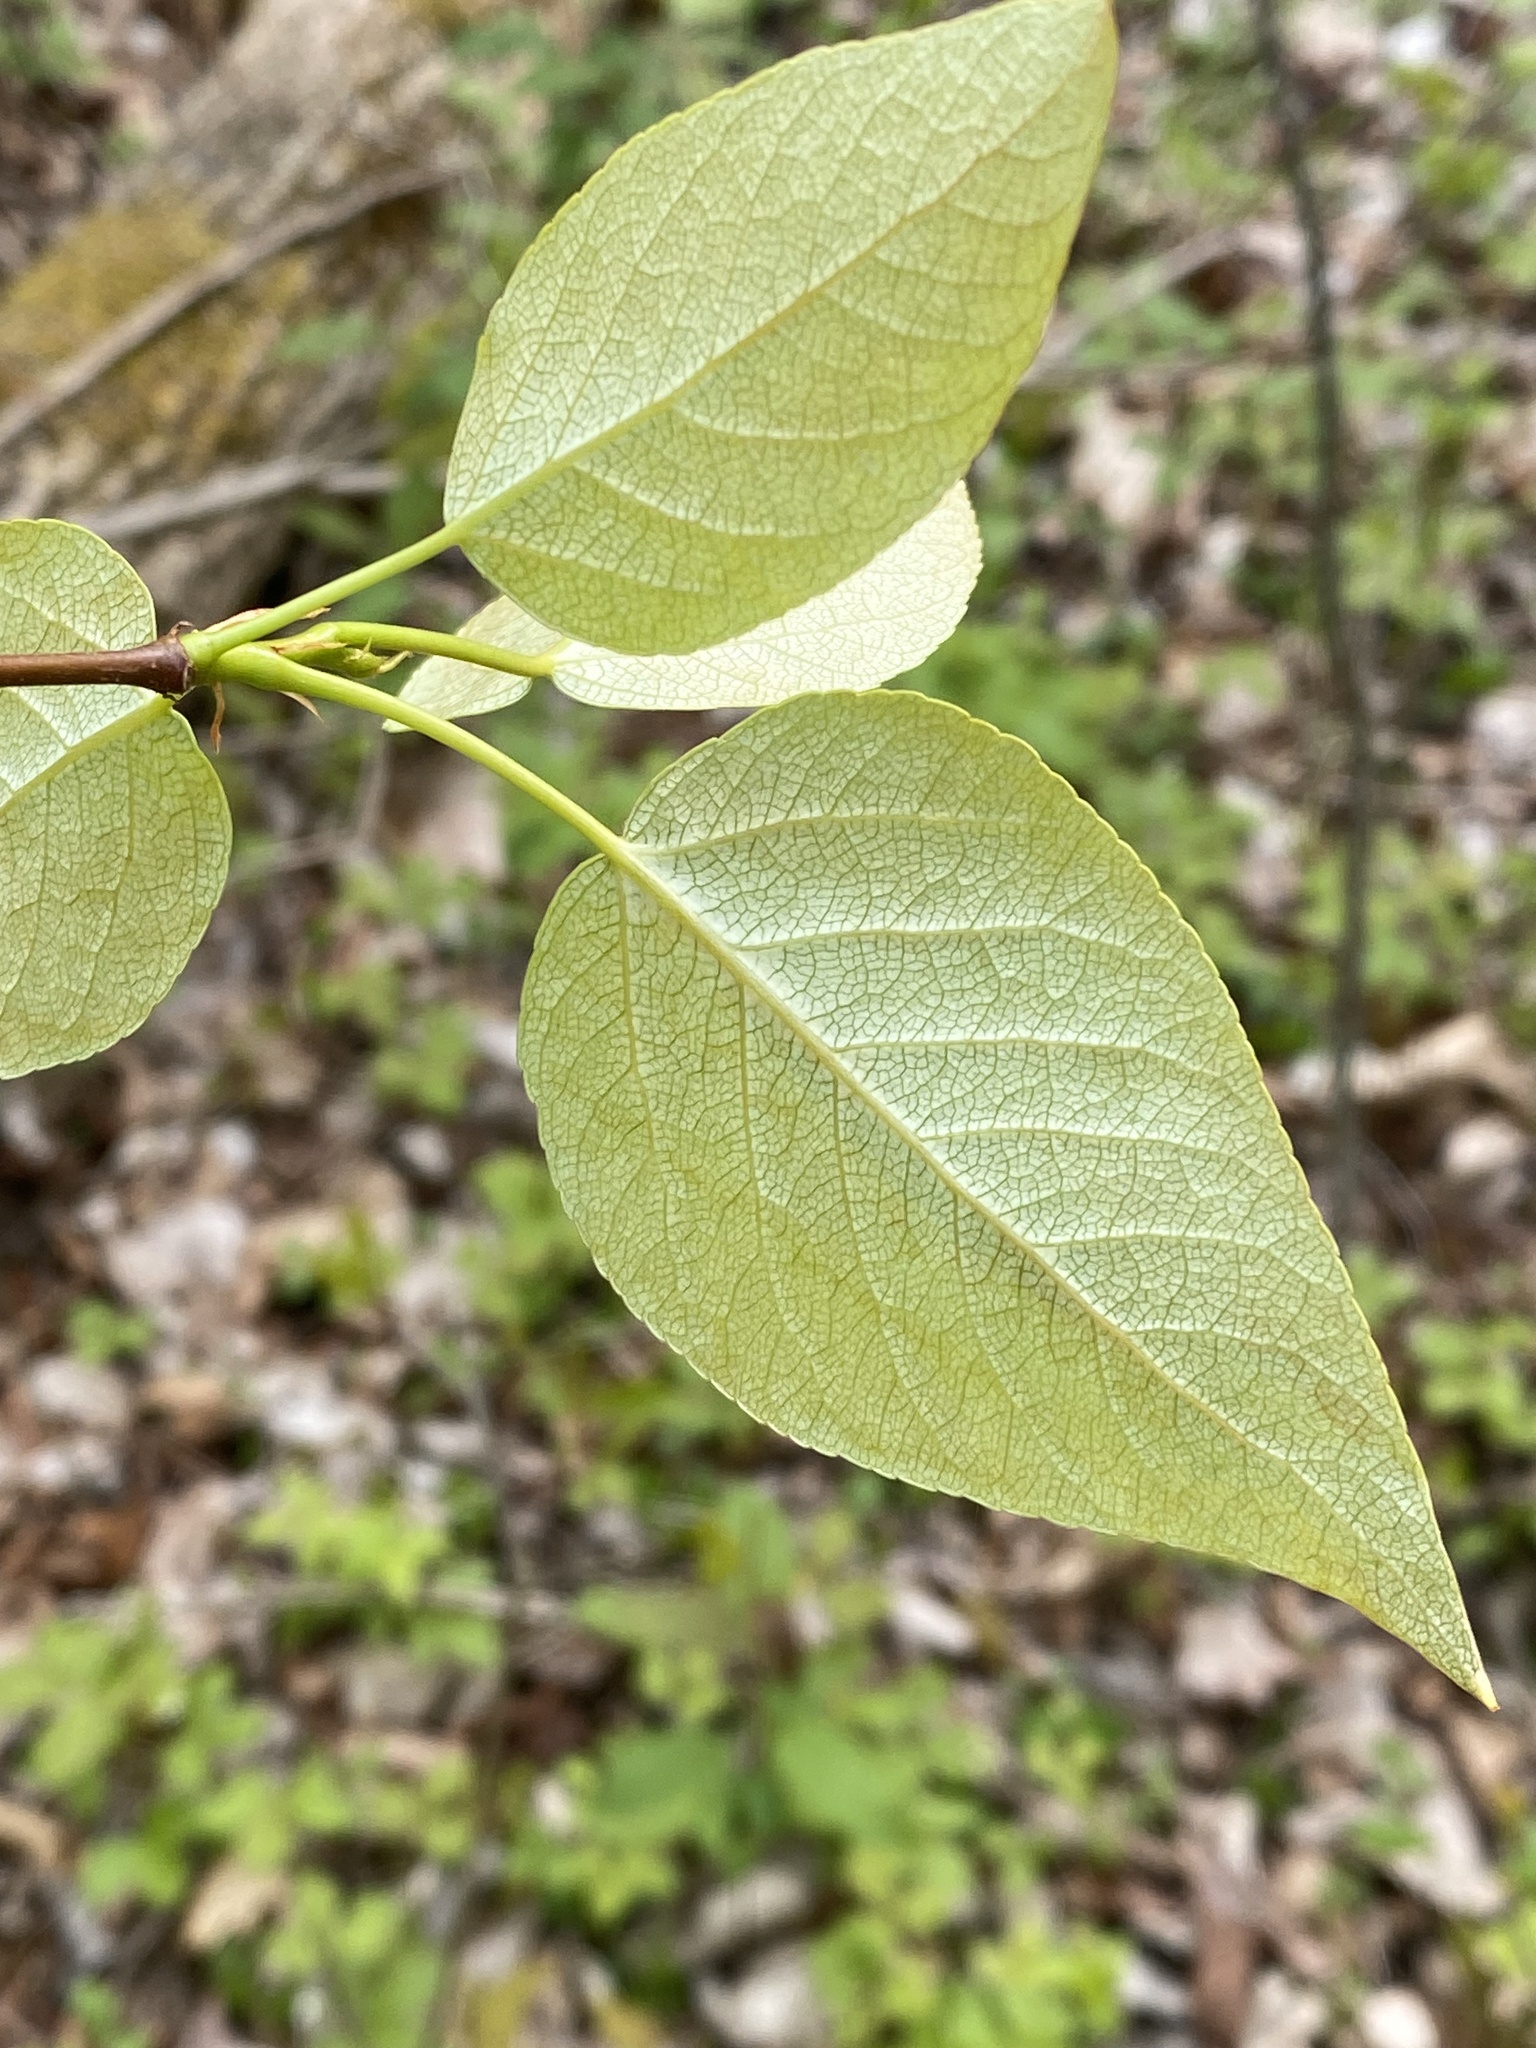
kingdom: Plantae
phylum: Tracheophyta
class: Magnoliopsida
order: Malpighiales
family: Salicaceae
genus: Populus
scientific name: Populus balsamifera
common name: Balsam poplar
